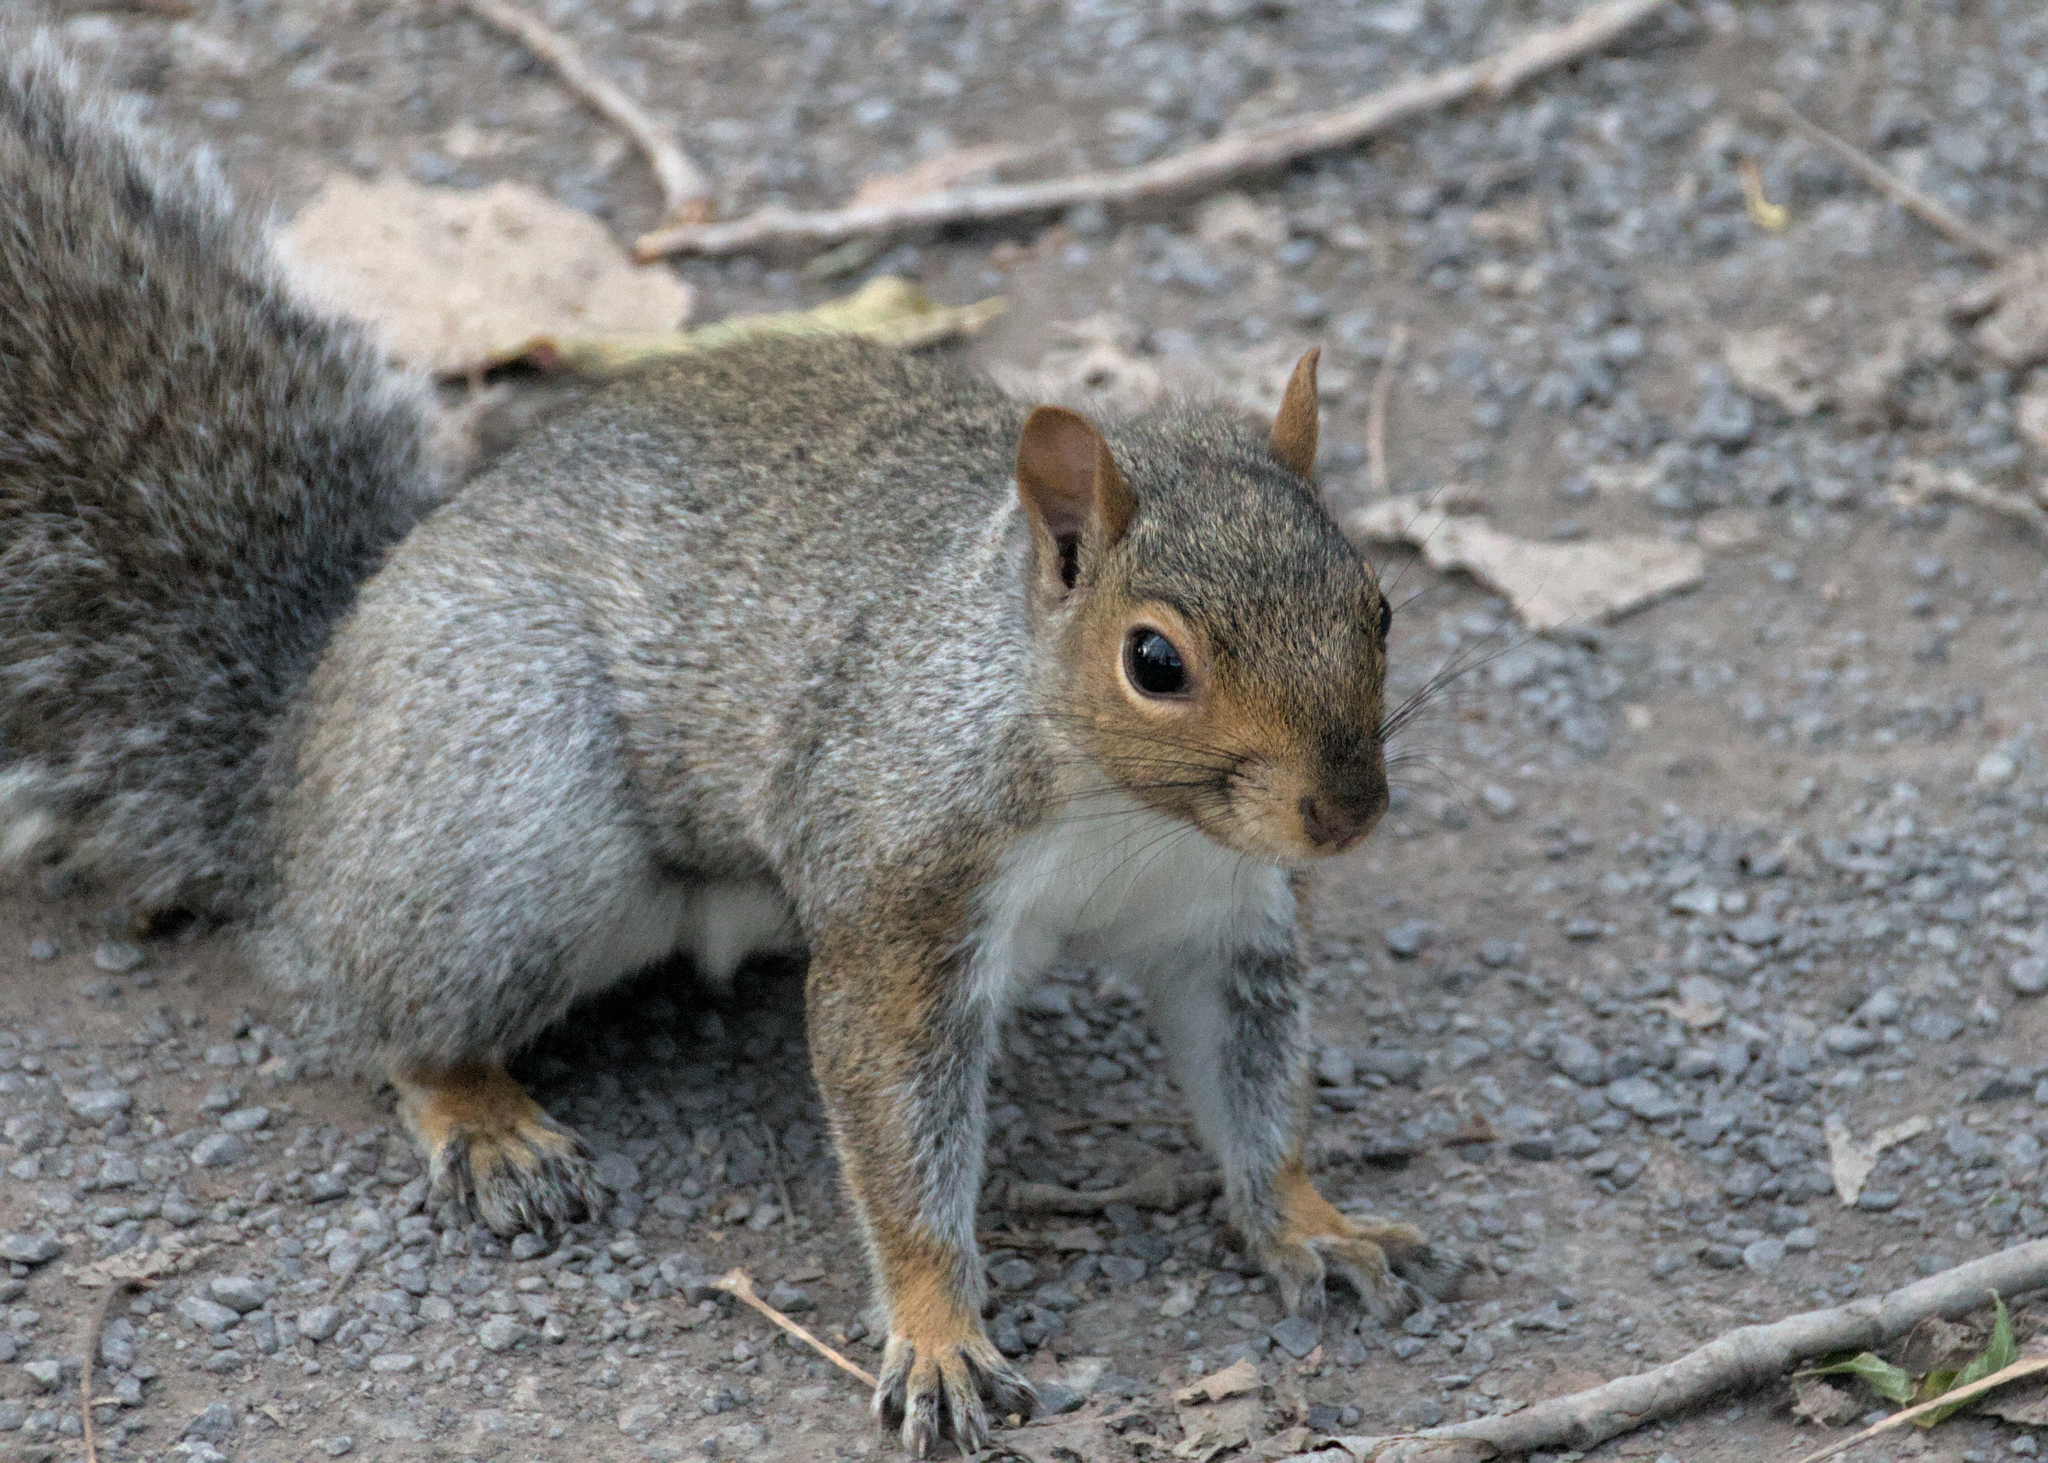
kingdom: Animalia
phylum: Chordata
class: Mammalia
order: Rodentia
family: Sciuridae
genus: Sciurus
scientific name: Sciurus carolinensis
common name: Eastern gray squirrel
